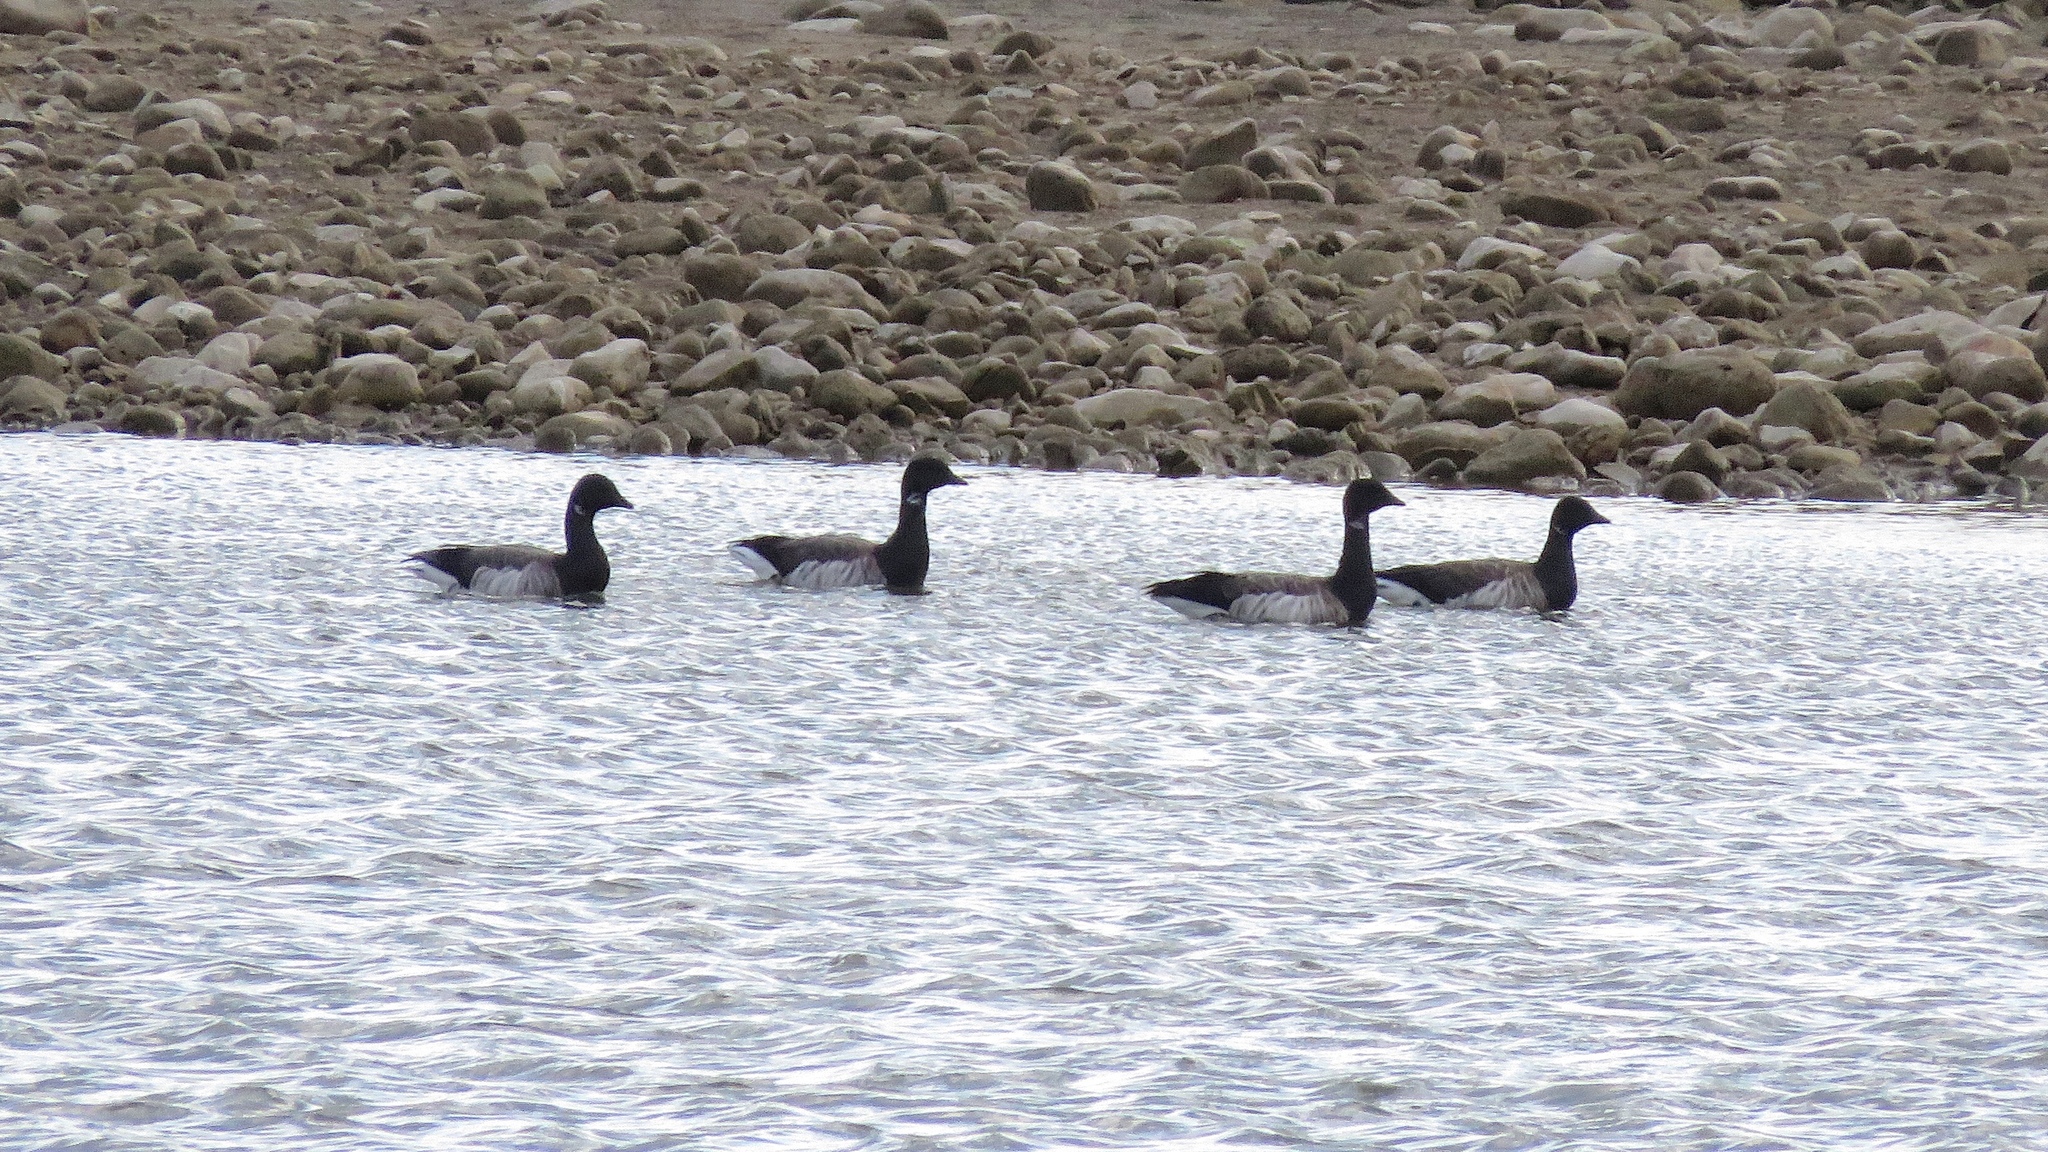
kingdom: Animalia
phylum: Chordata
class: Aves
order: Anseriformes
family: Anatidae
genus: Branta
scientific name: Branta bernicla
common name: Brant goose
